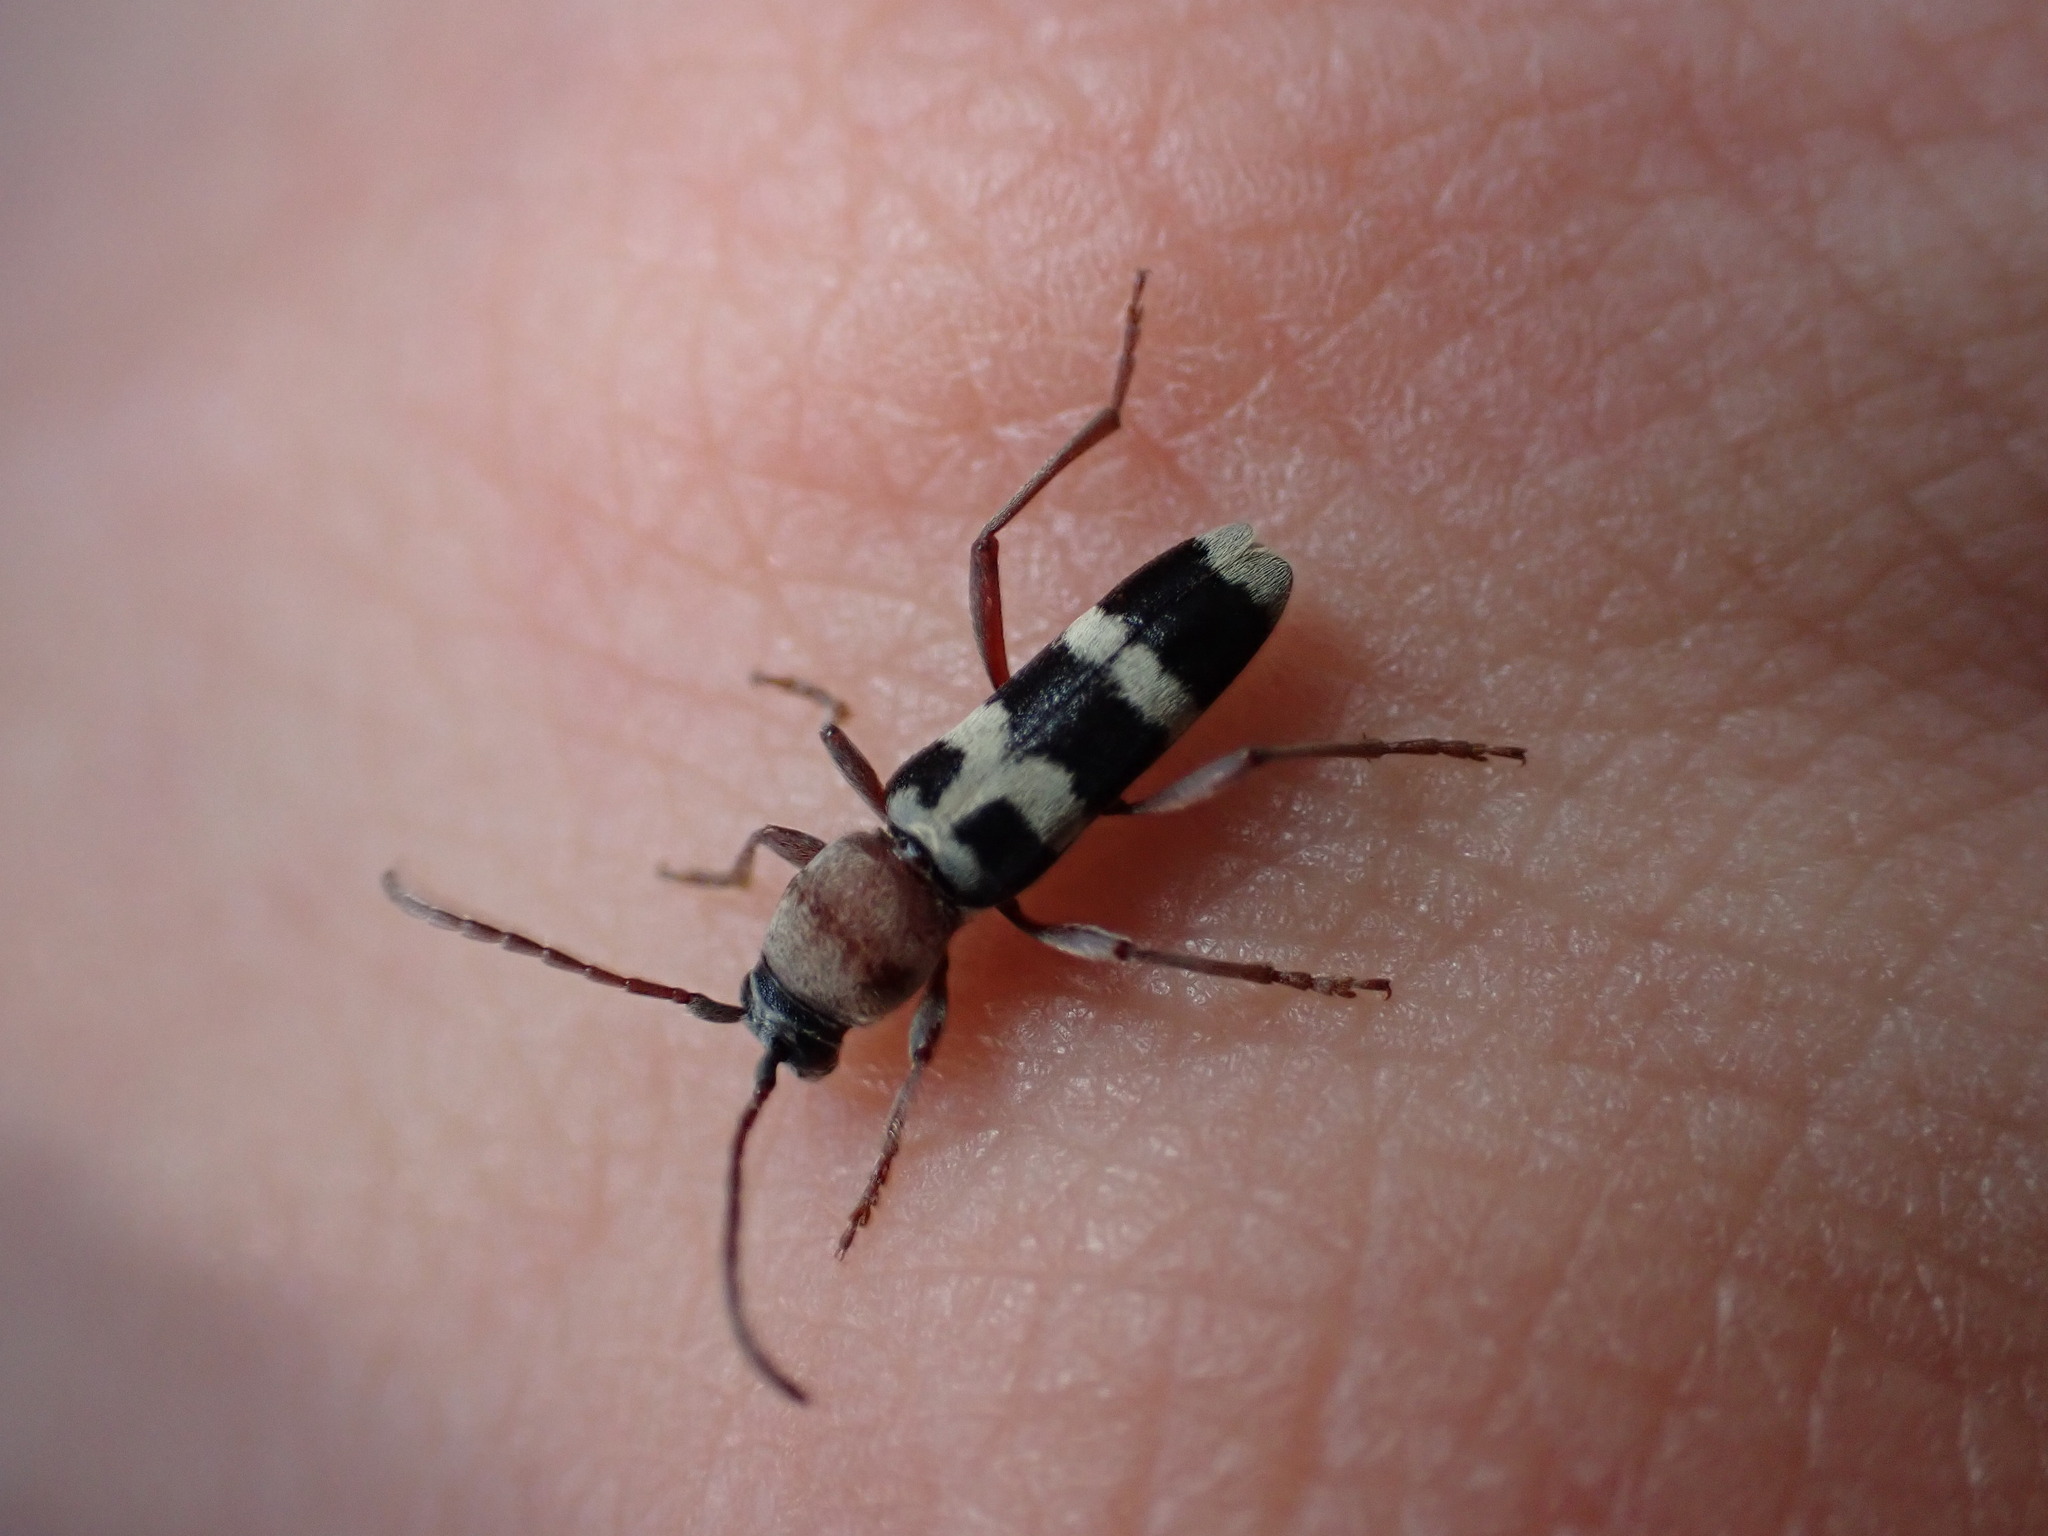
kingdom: Animalia
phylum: Arthropoda
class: Insecta
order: Coleoptera
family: Cerambycidae
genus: Chlorophorus
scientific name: Chlorophorus trifasciatus
